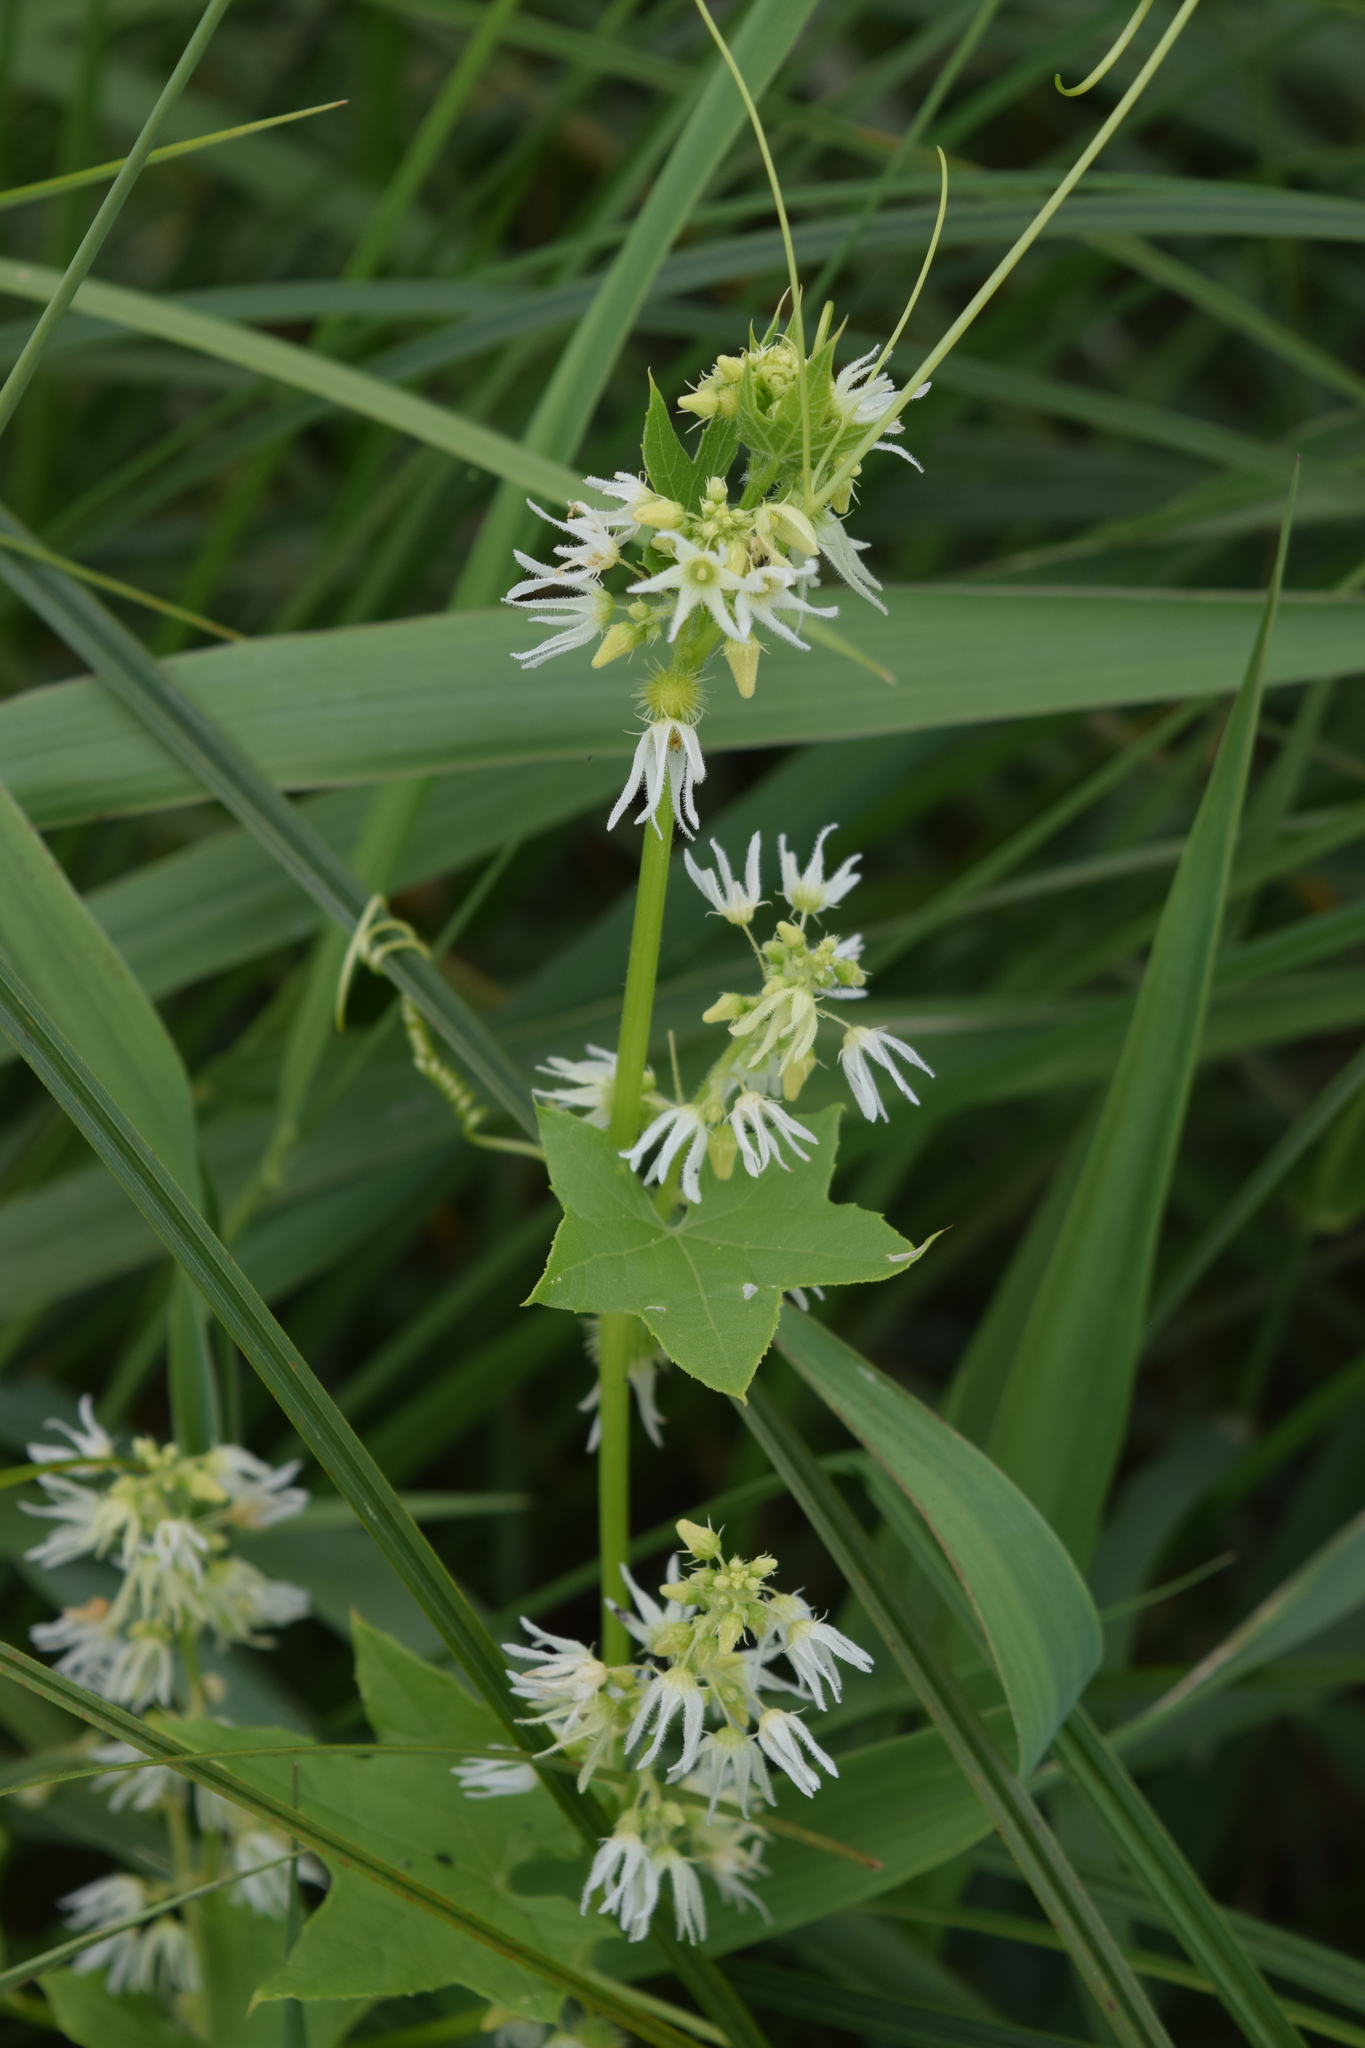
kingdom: Plantae
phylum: Tracheophyta
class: Magnoliopsida
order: Cucurbitales
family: Cucurbitaceae
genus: Echinocystis
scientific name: Echinocystis lobata
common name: Wild cucumber
